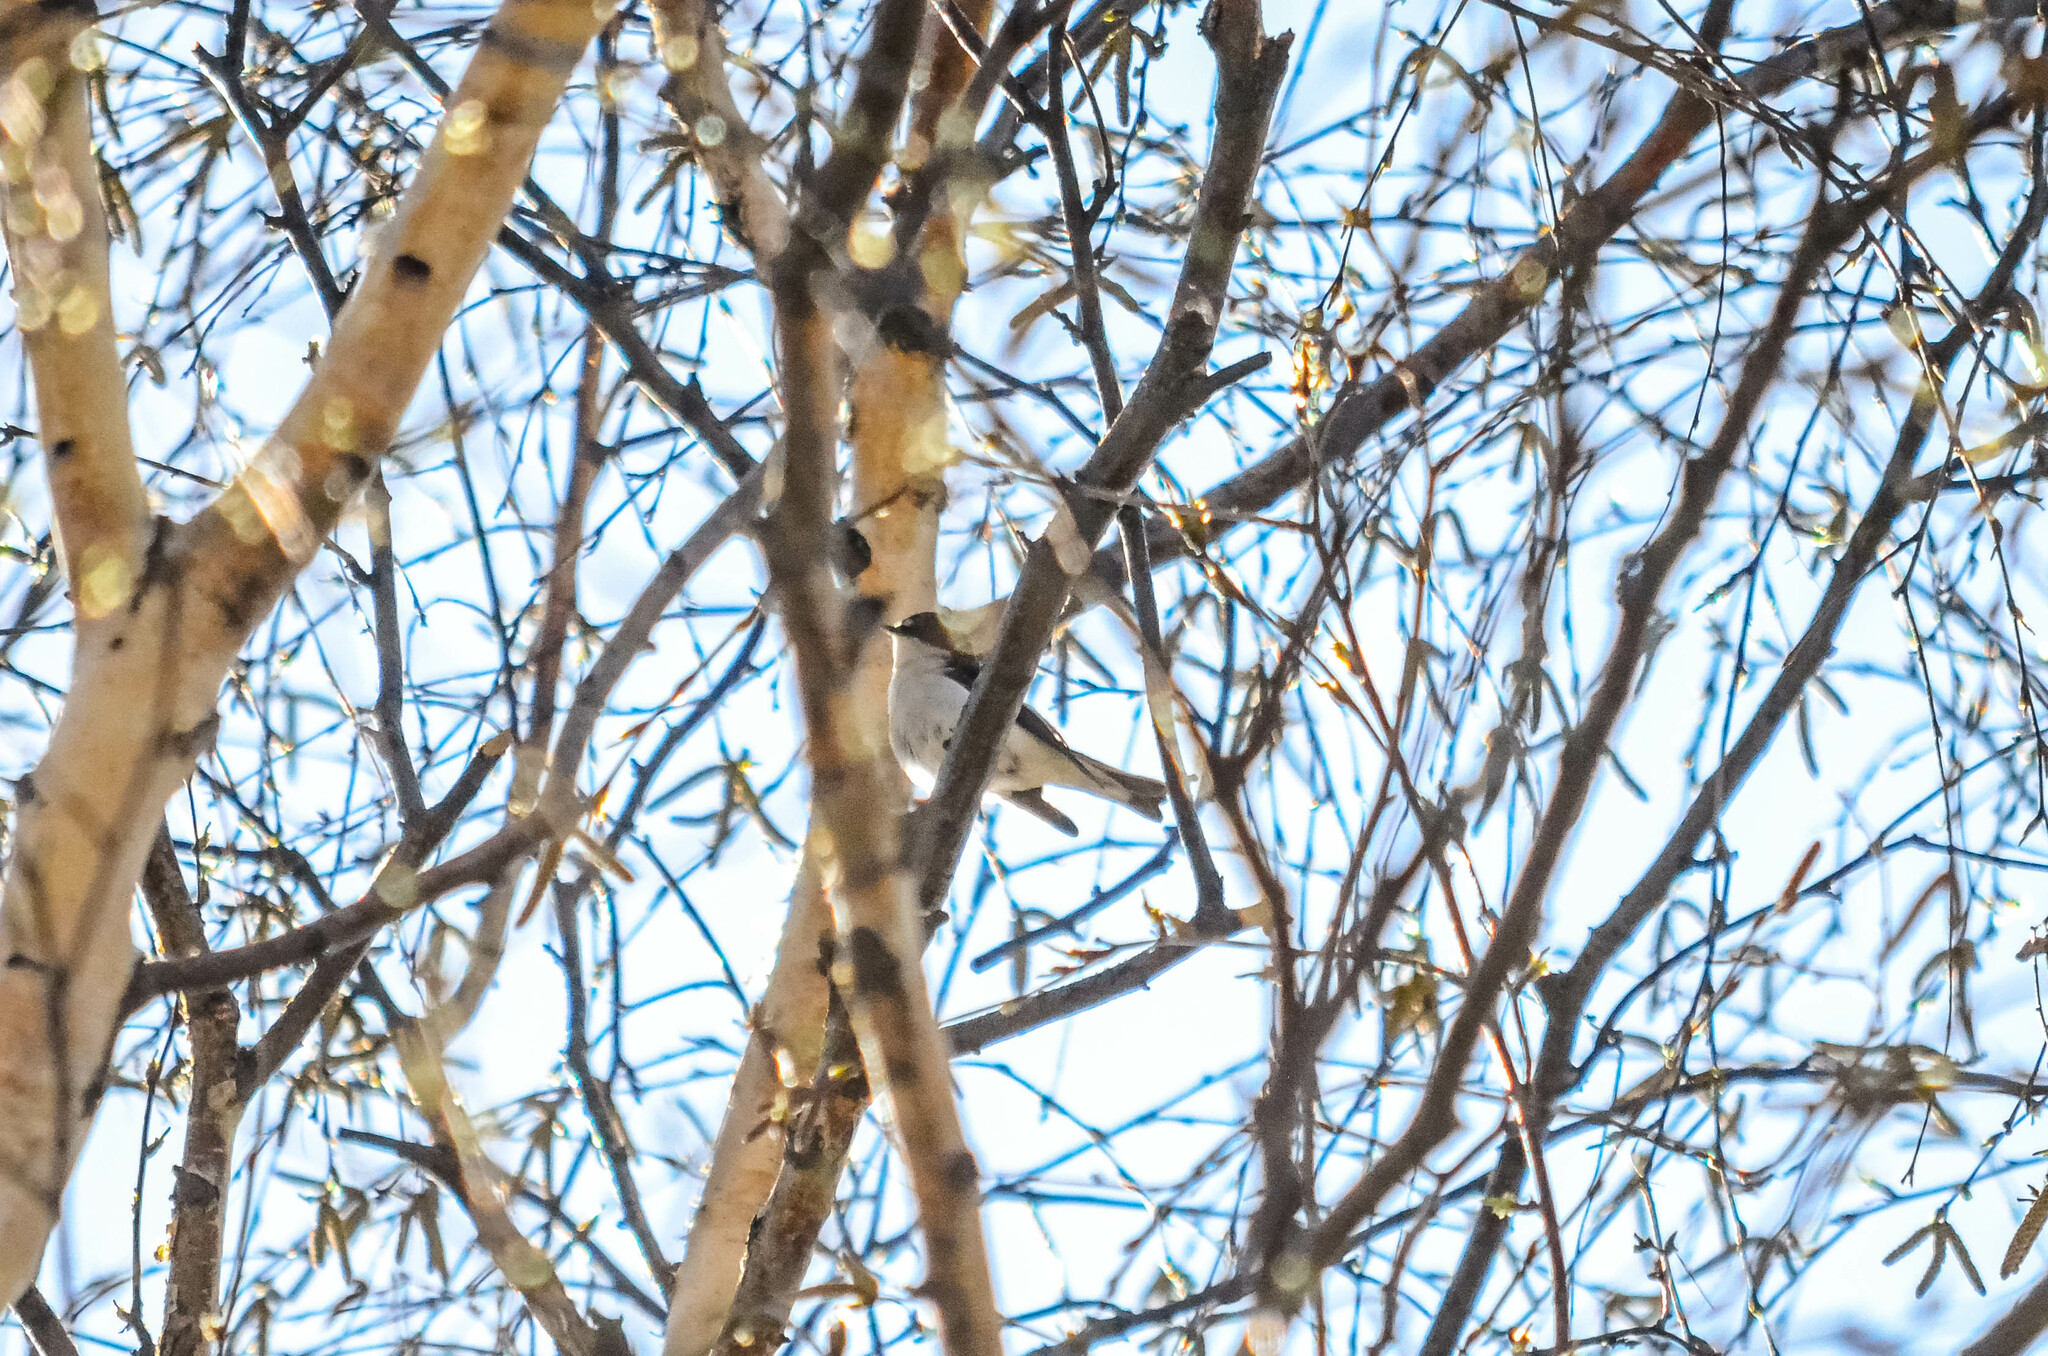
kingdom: Animalia
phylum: Chordata
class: Aves
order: Passeriformes
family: Muscicapidae
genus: Ficedula
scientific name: Ficedula hypoleuca
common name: European pied flycatcher
